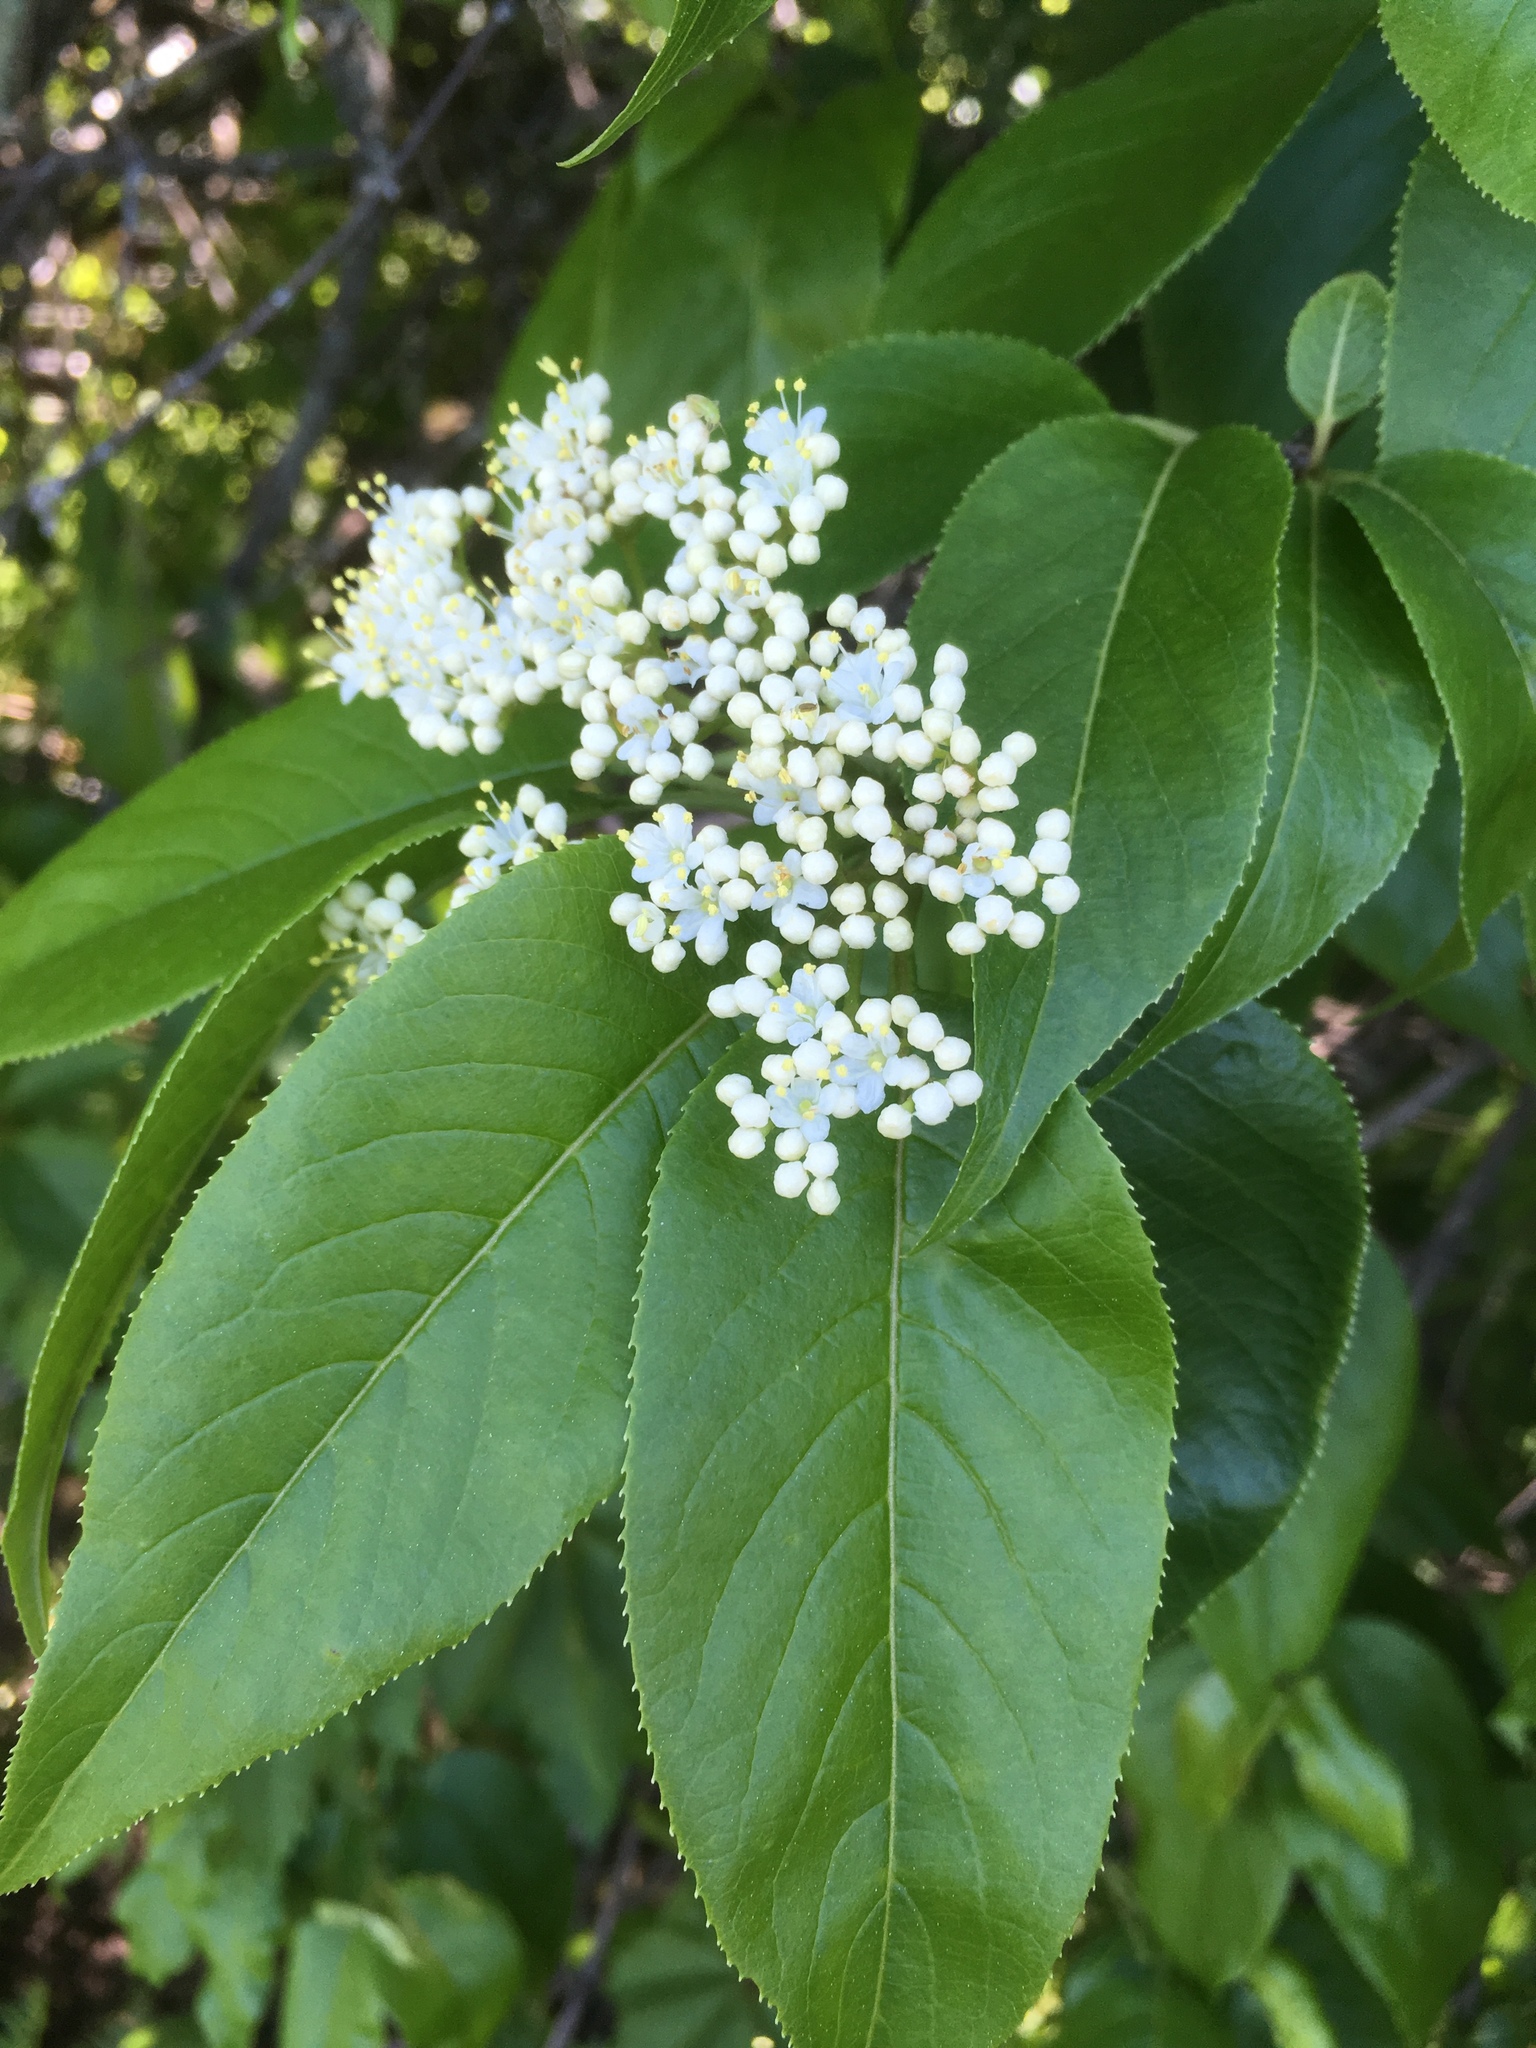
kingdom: Plantae
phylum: Tracheophyta
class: Magnoliopsida
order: Dipsacales
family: Viburnaceae
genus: Viburnum
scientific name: Viburnum lentago
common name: Black haw
